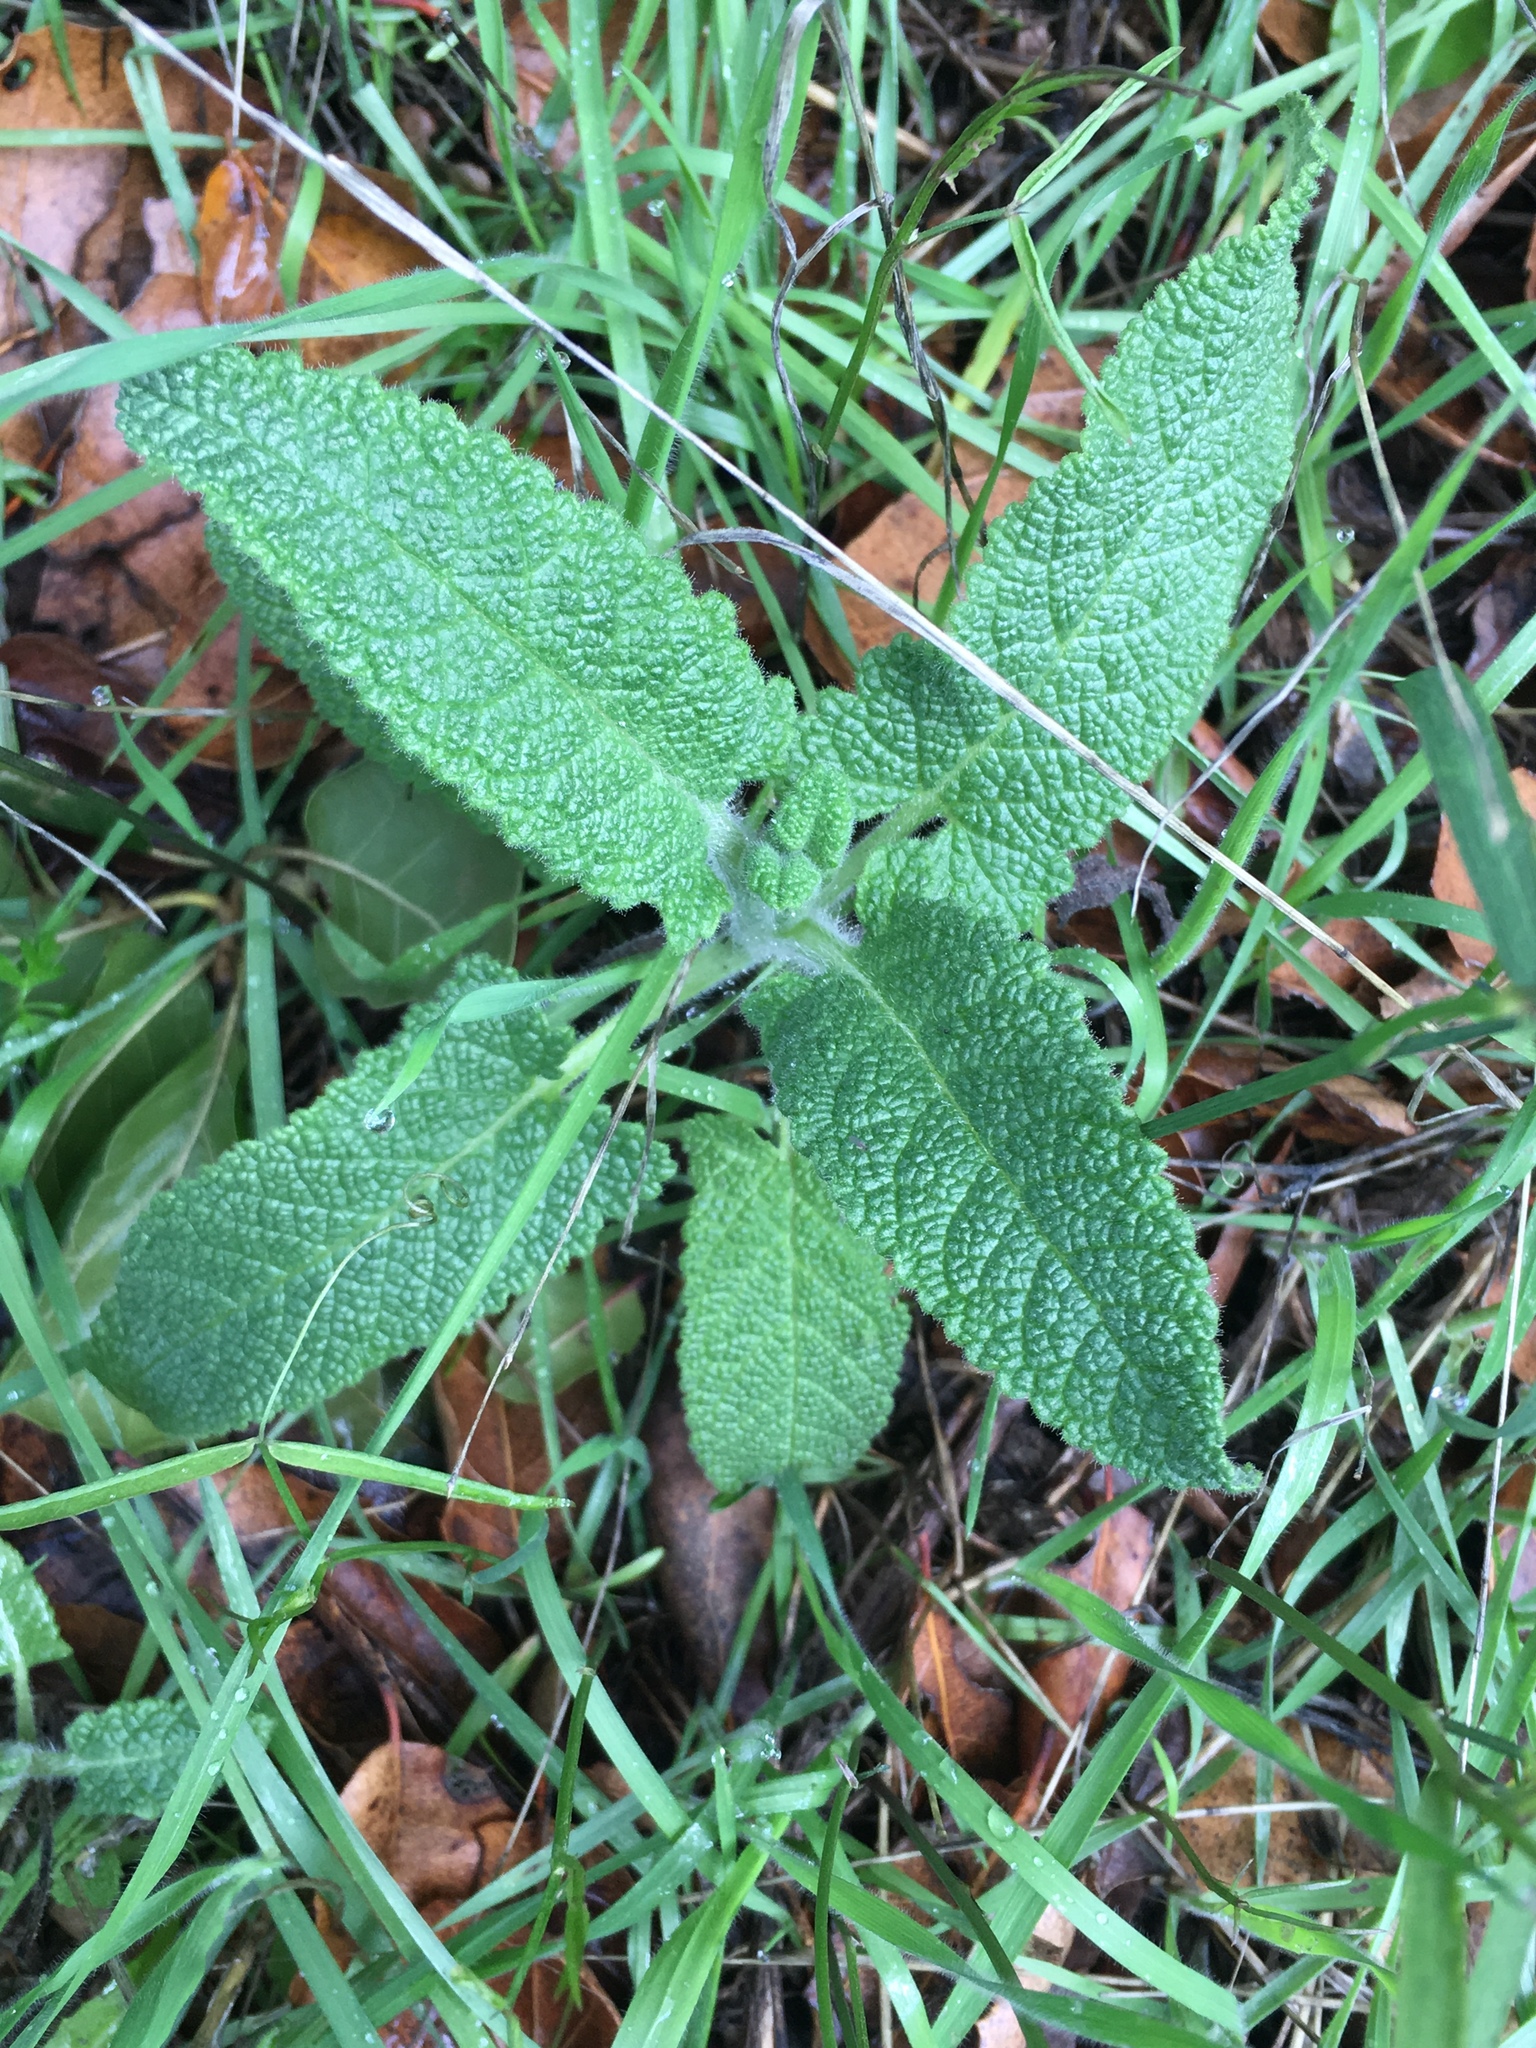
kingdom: Plantae
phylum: Tracheophyta
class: Magnoliopsida
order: Lamiales
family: Lamiaceae
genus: Salvia
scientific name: Salvia spathacea
